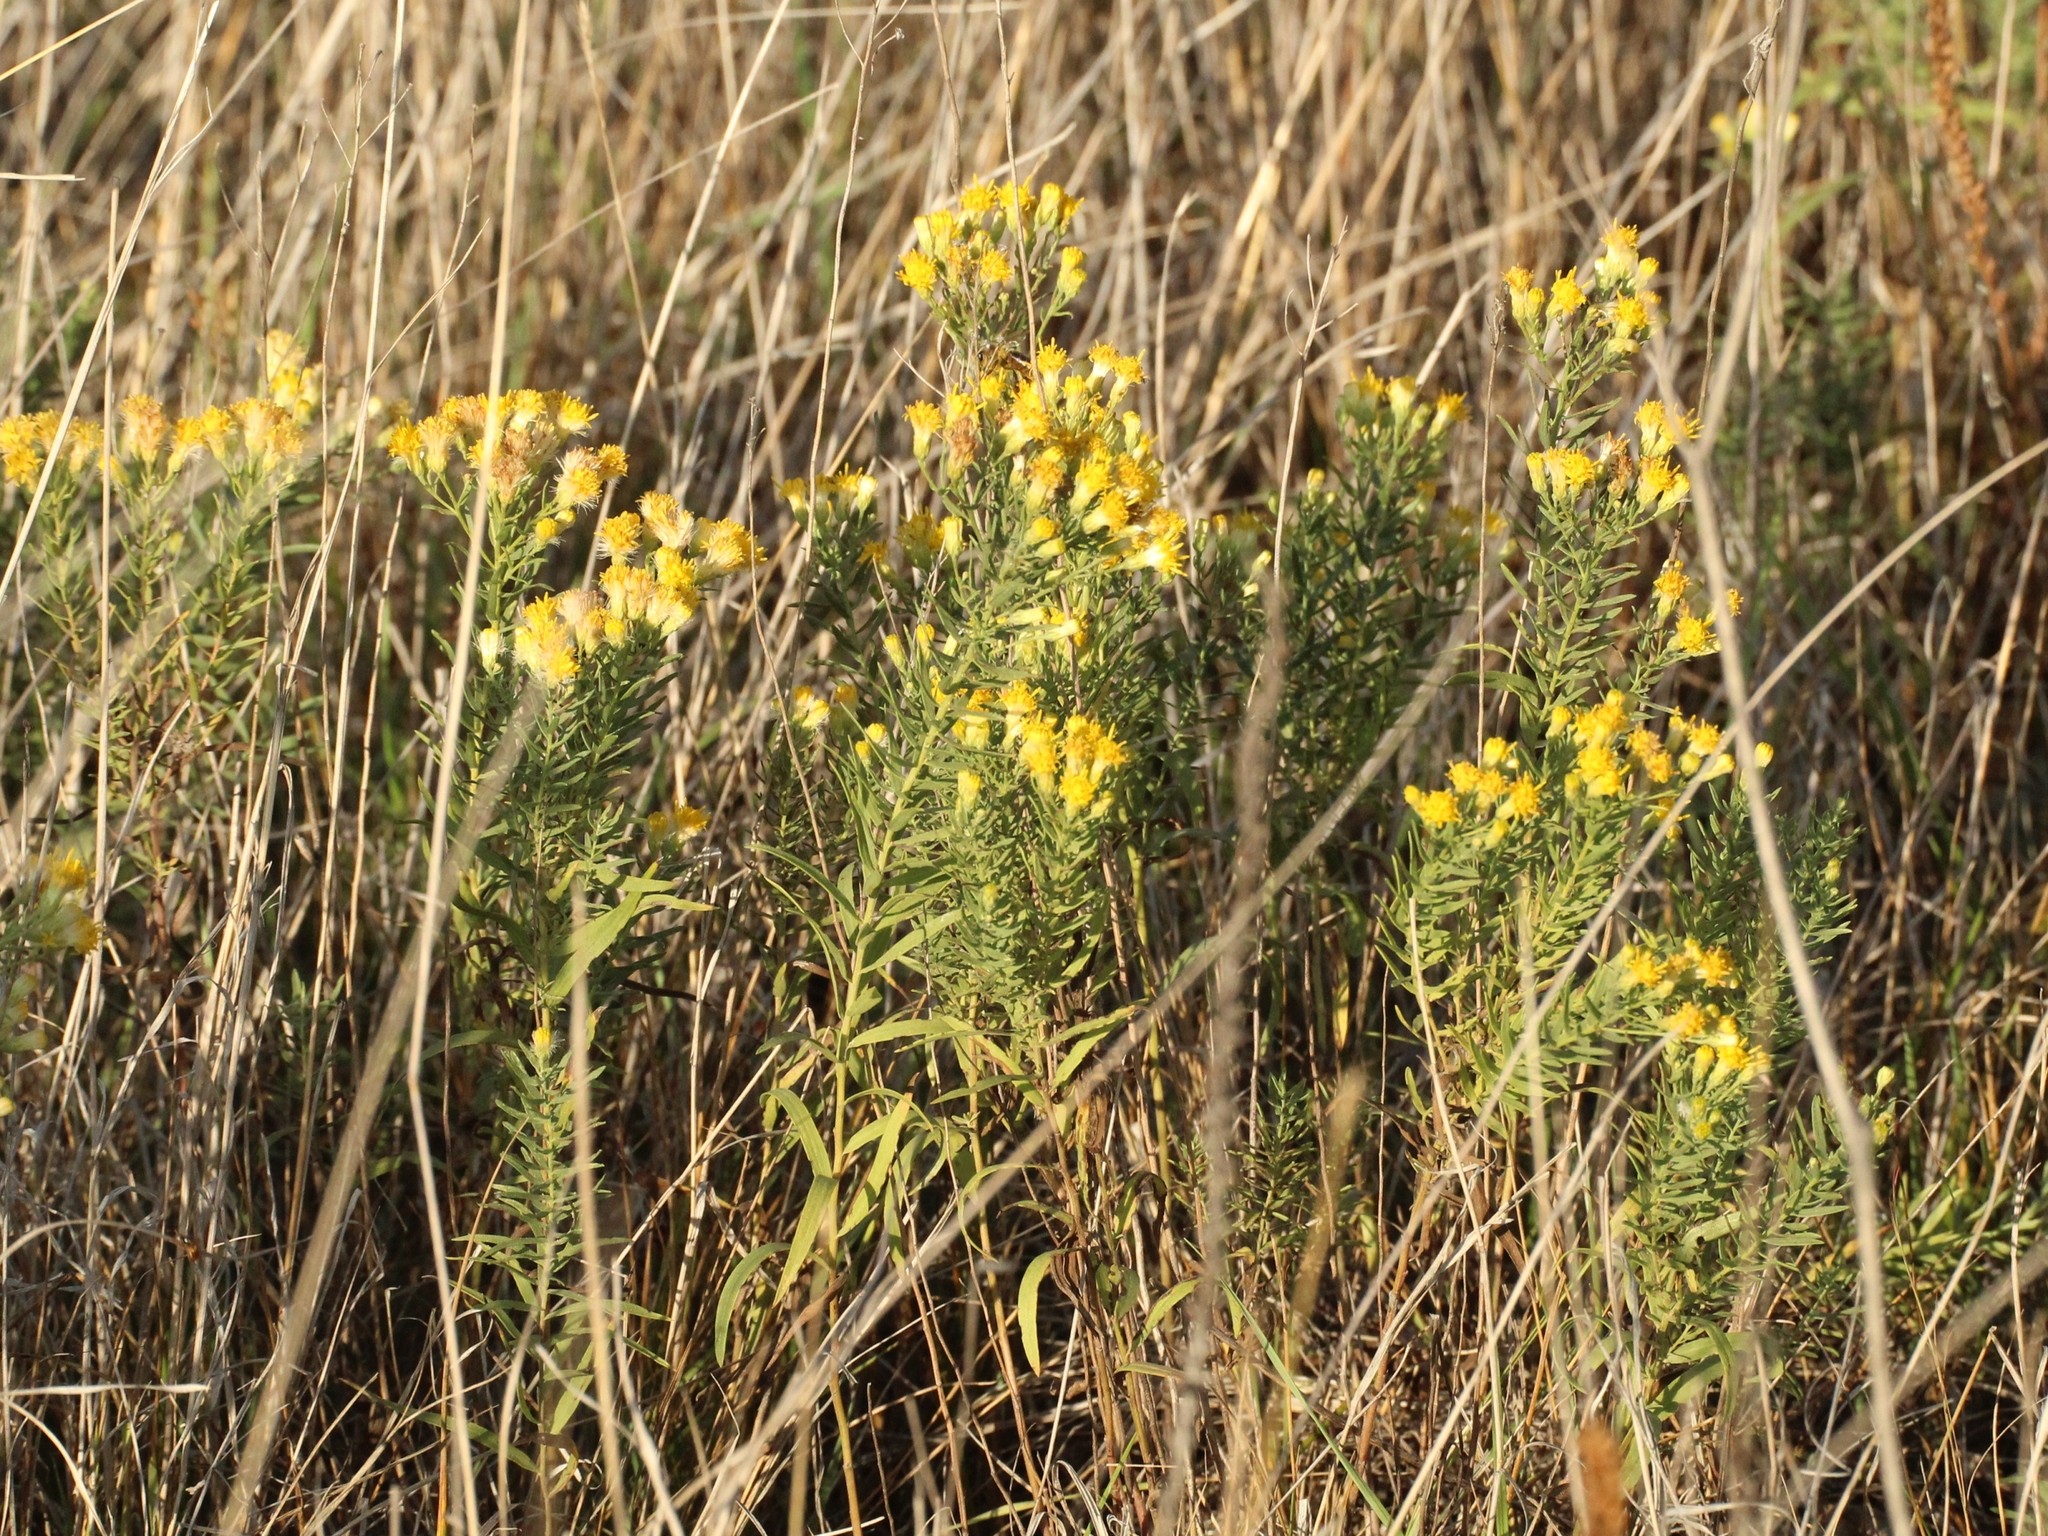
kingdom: Plantae
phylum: Tracheophyta
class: Magnoliopsida
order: Asterales
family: Asteraceae
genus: Galatella
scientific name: Galatella biflora
